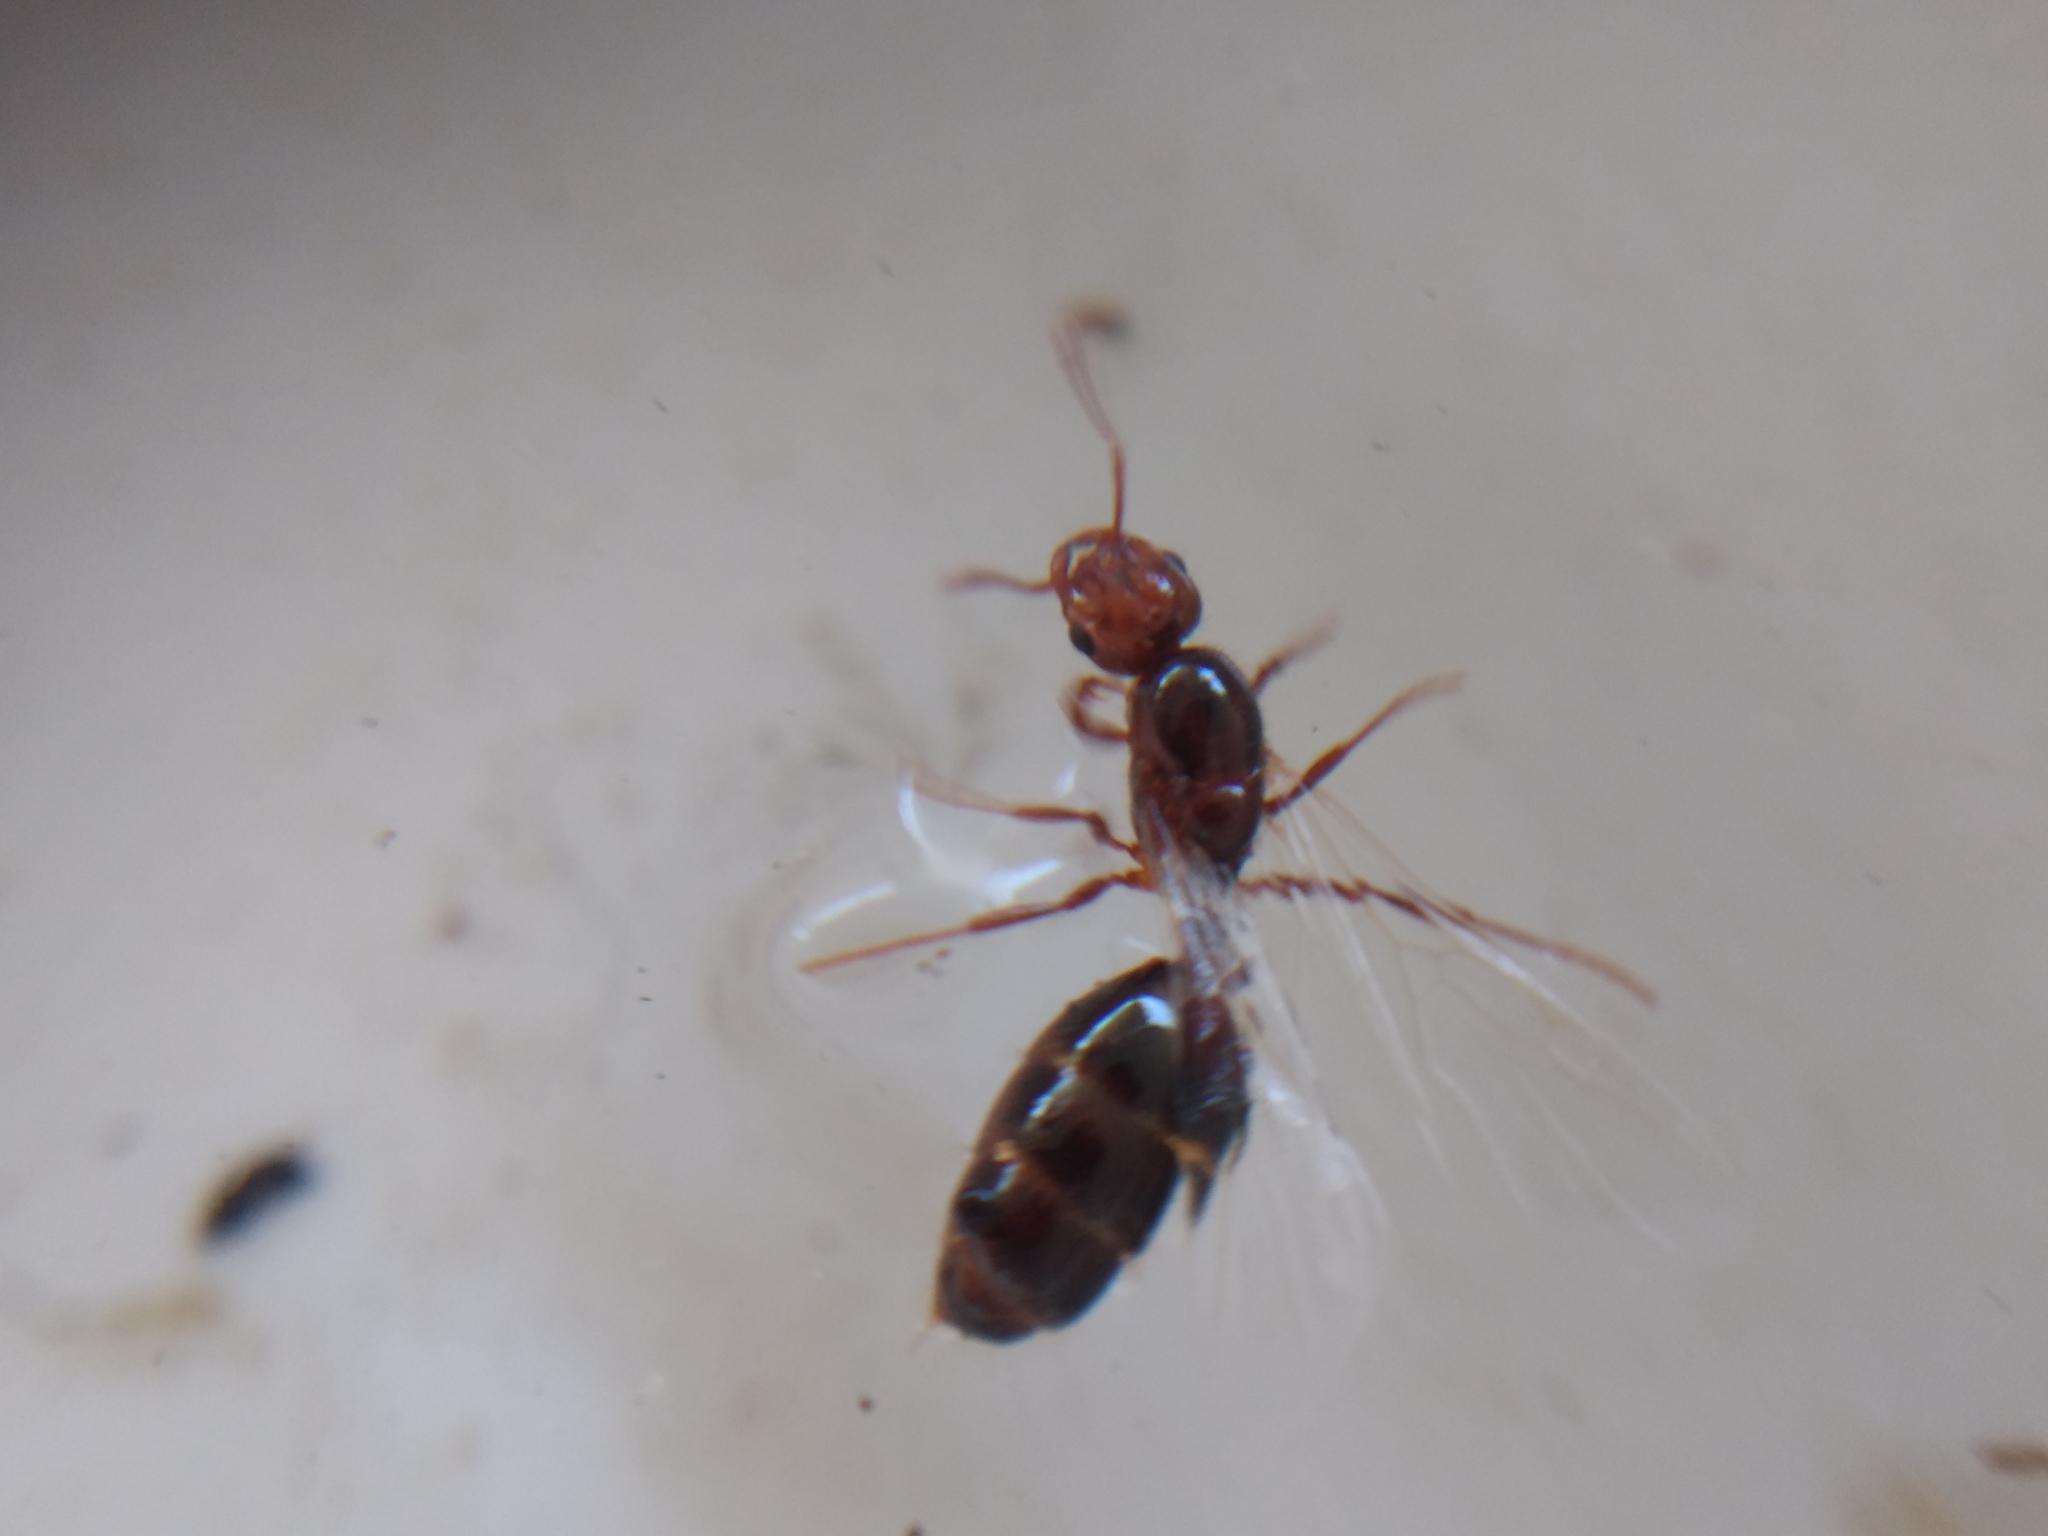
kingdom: Animalia
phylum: Arthropoda
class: Insecta
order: Hymenoptera
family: Formicidae
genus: Solenopsis
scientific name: Solenopsis invicta
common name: Red imported fire ant
